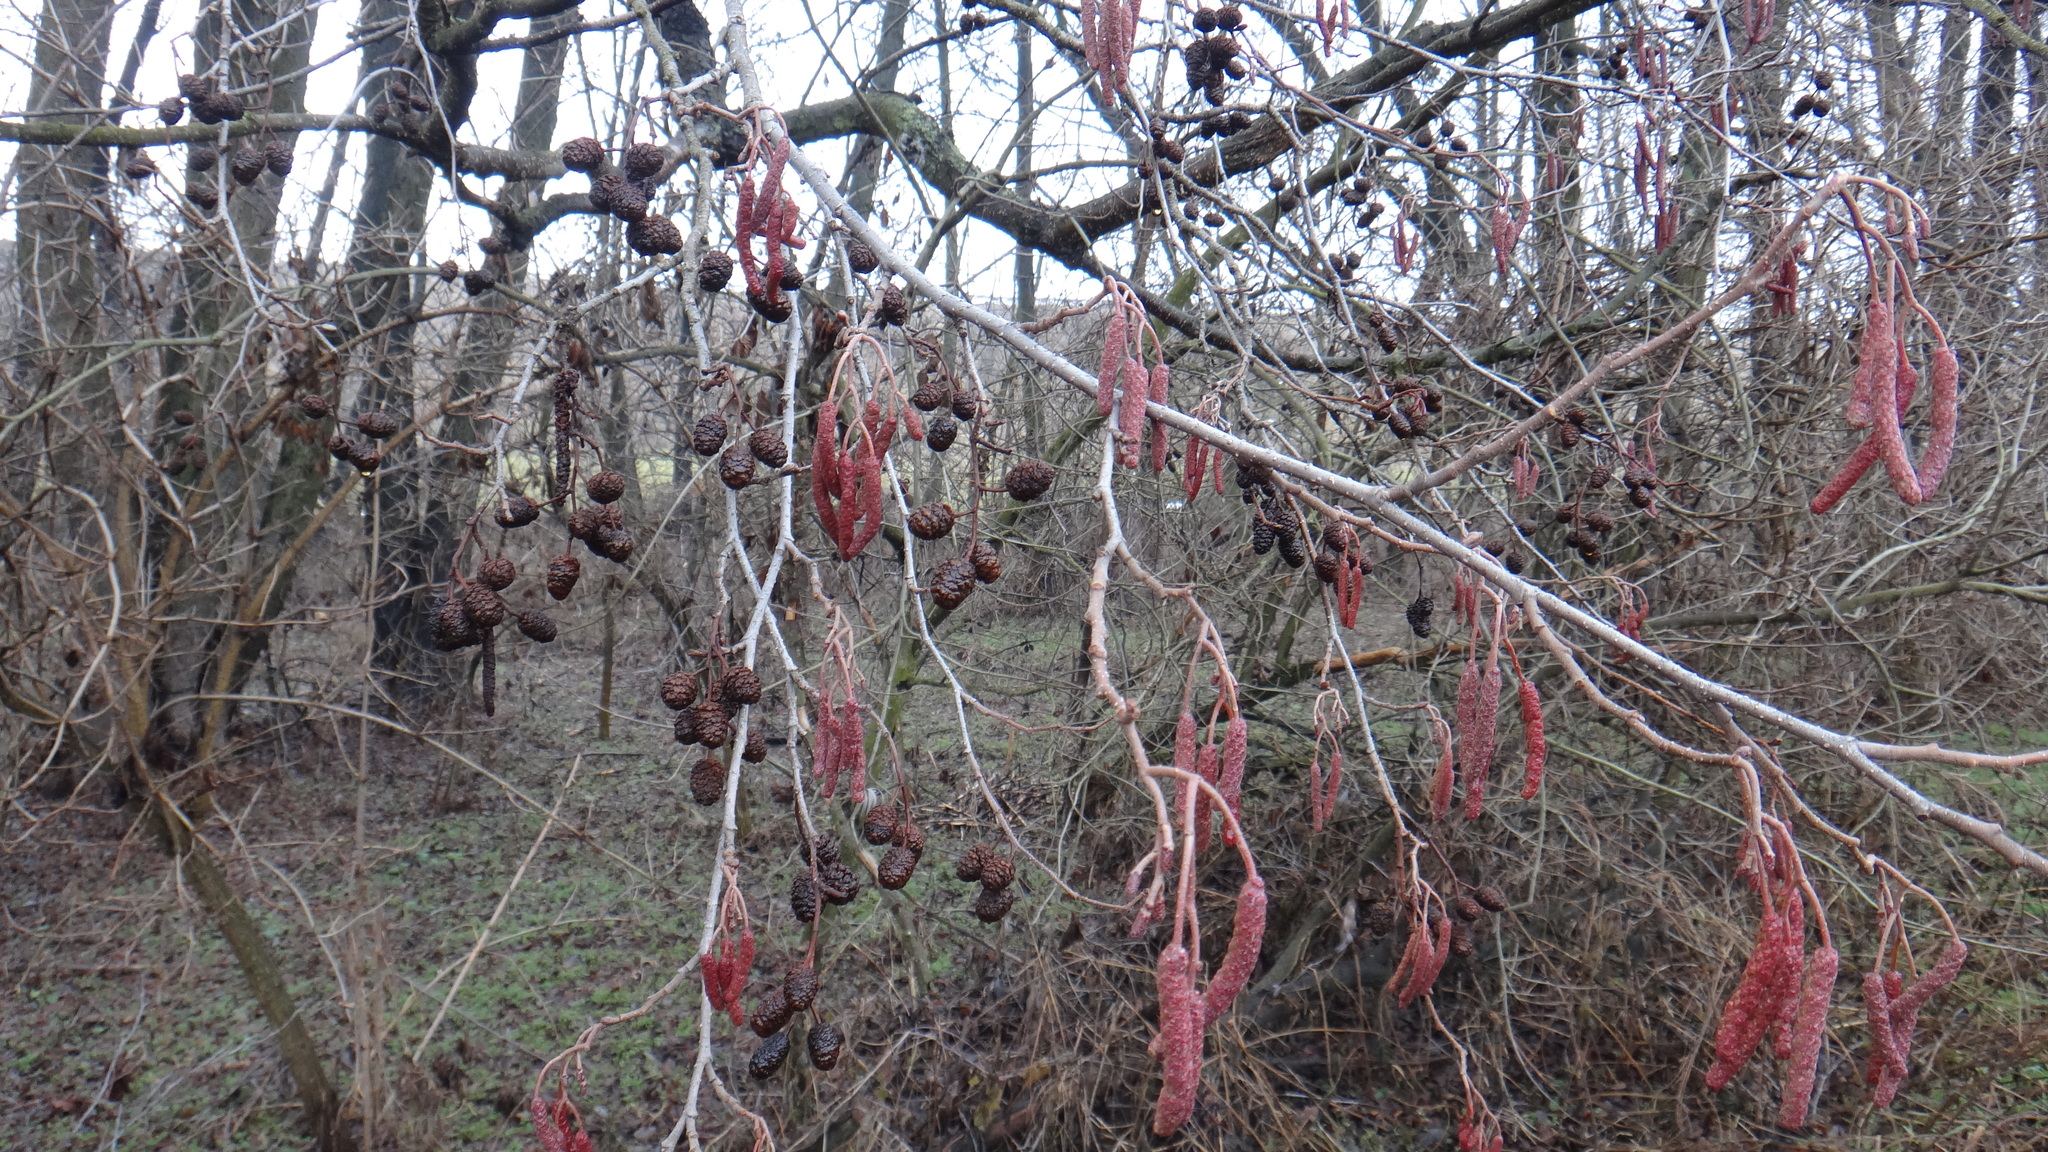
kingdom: Plantae
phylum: Tracheophyta
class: Magnoliopsida
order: Fagales
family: Betulaceae
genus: Alnus
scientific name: Alnus glutinosa
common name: Black alder
